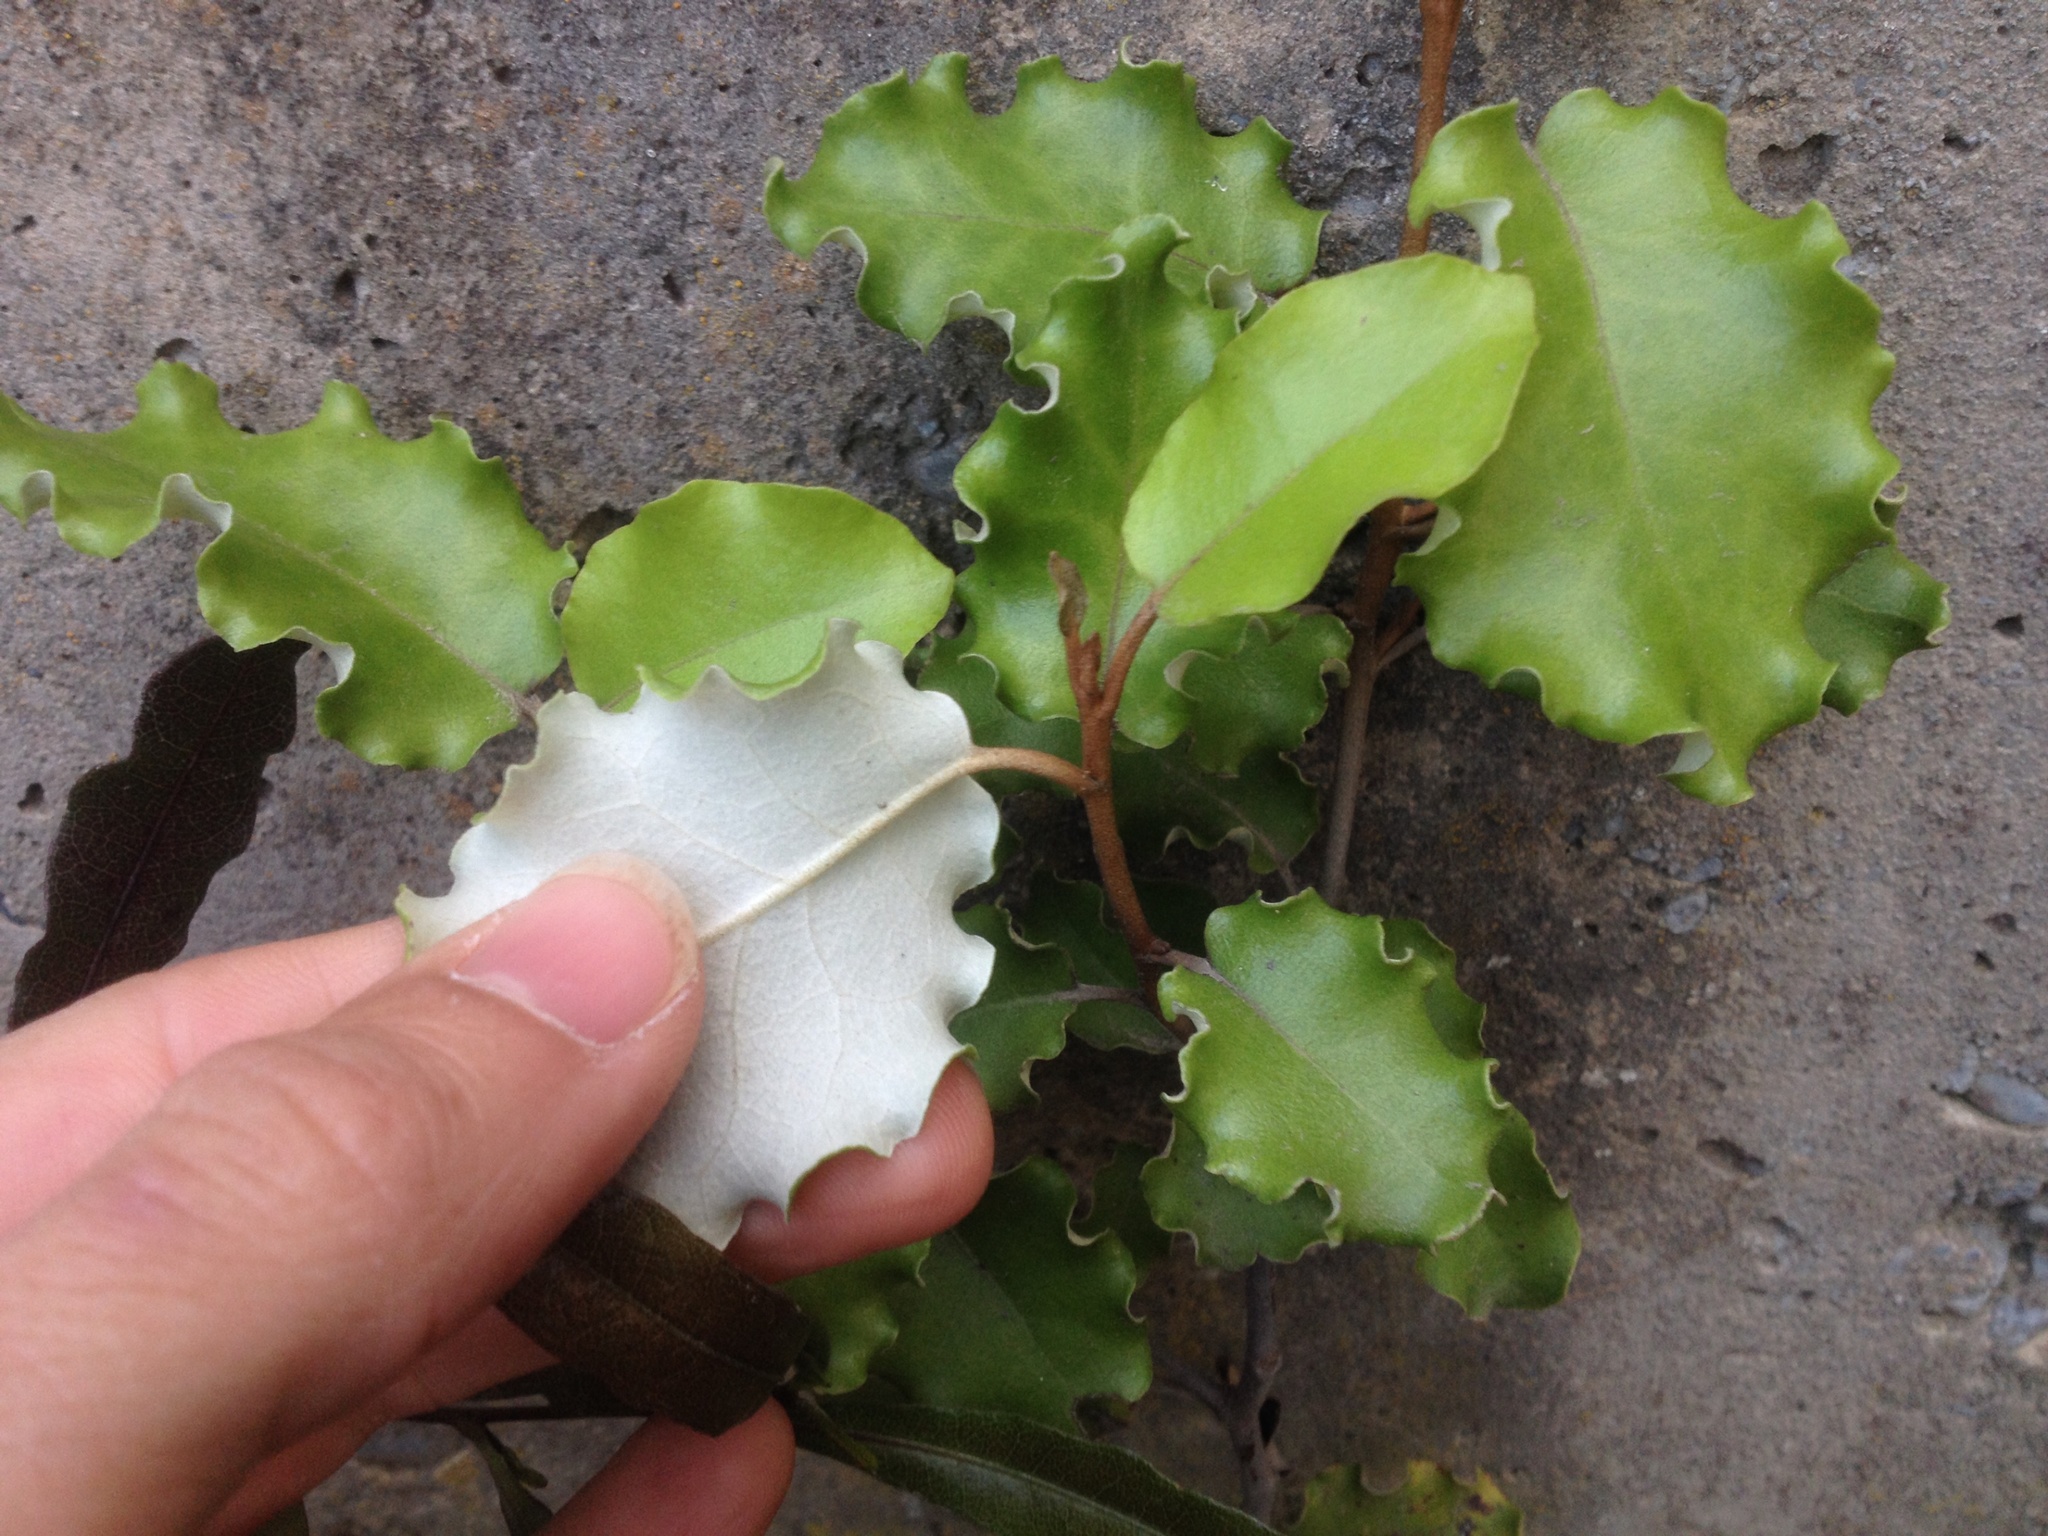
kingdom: Plantae
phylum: Tracheophyta
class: Magnoliopsida
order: Asterales
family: Asteraceae
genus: Olearia
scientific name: Olearia paniculata
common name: Akiraho
